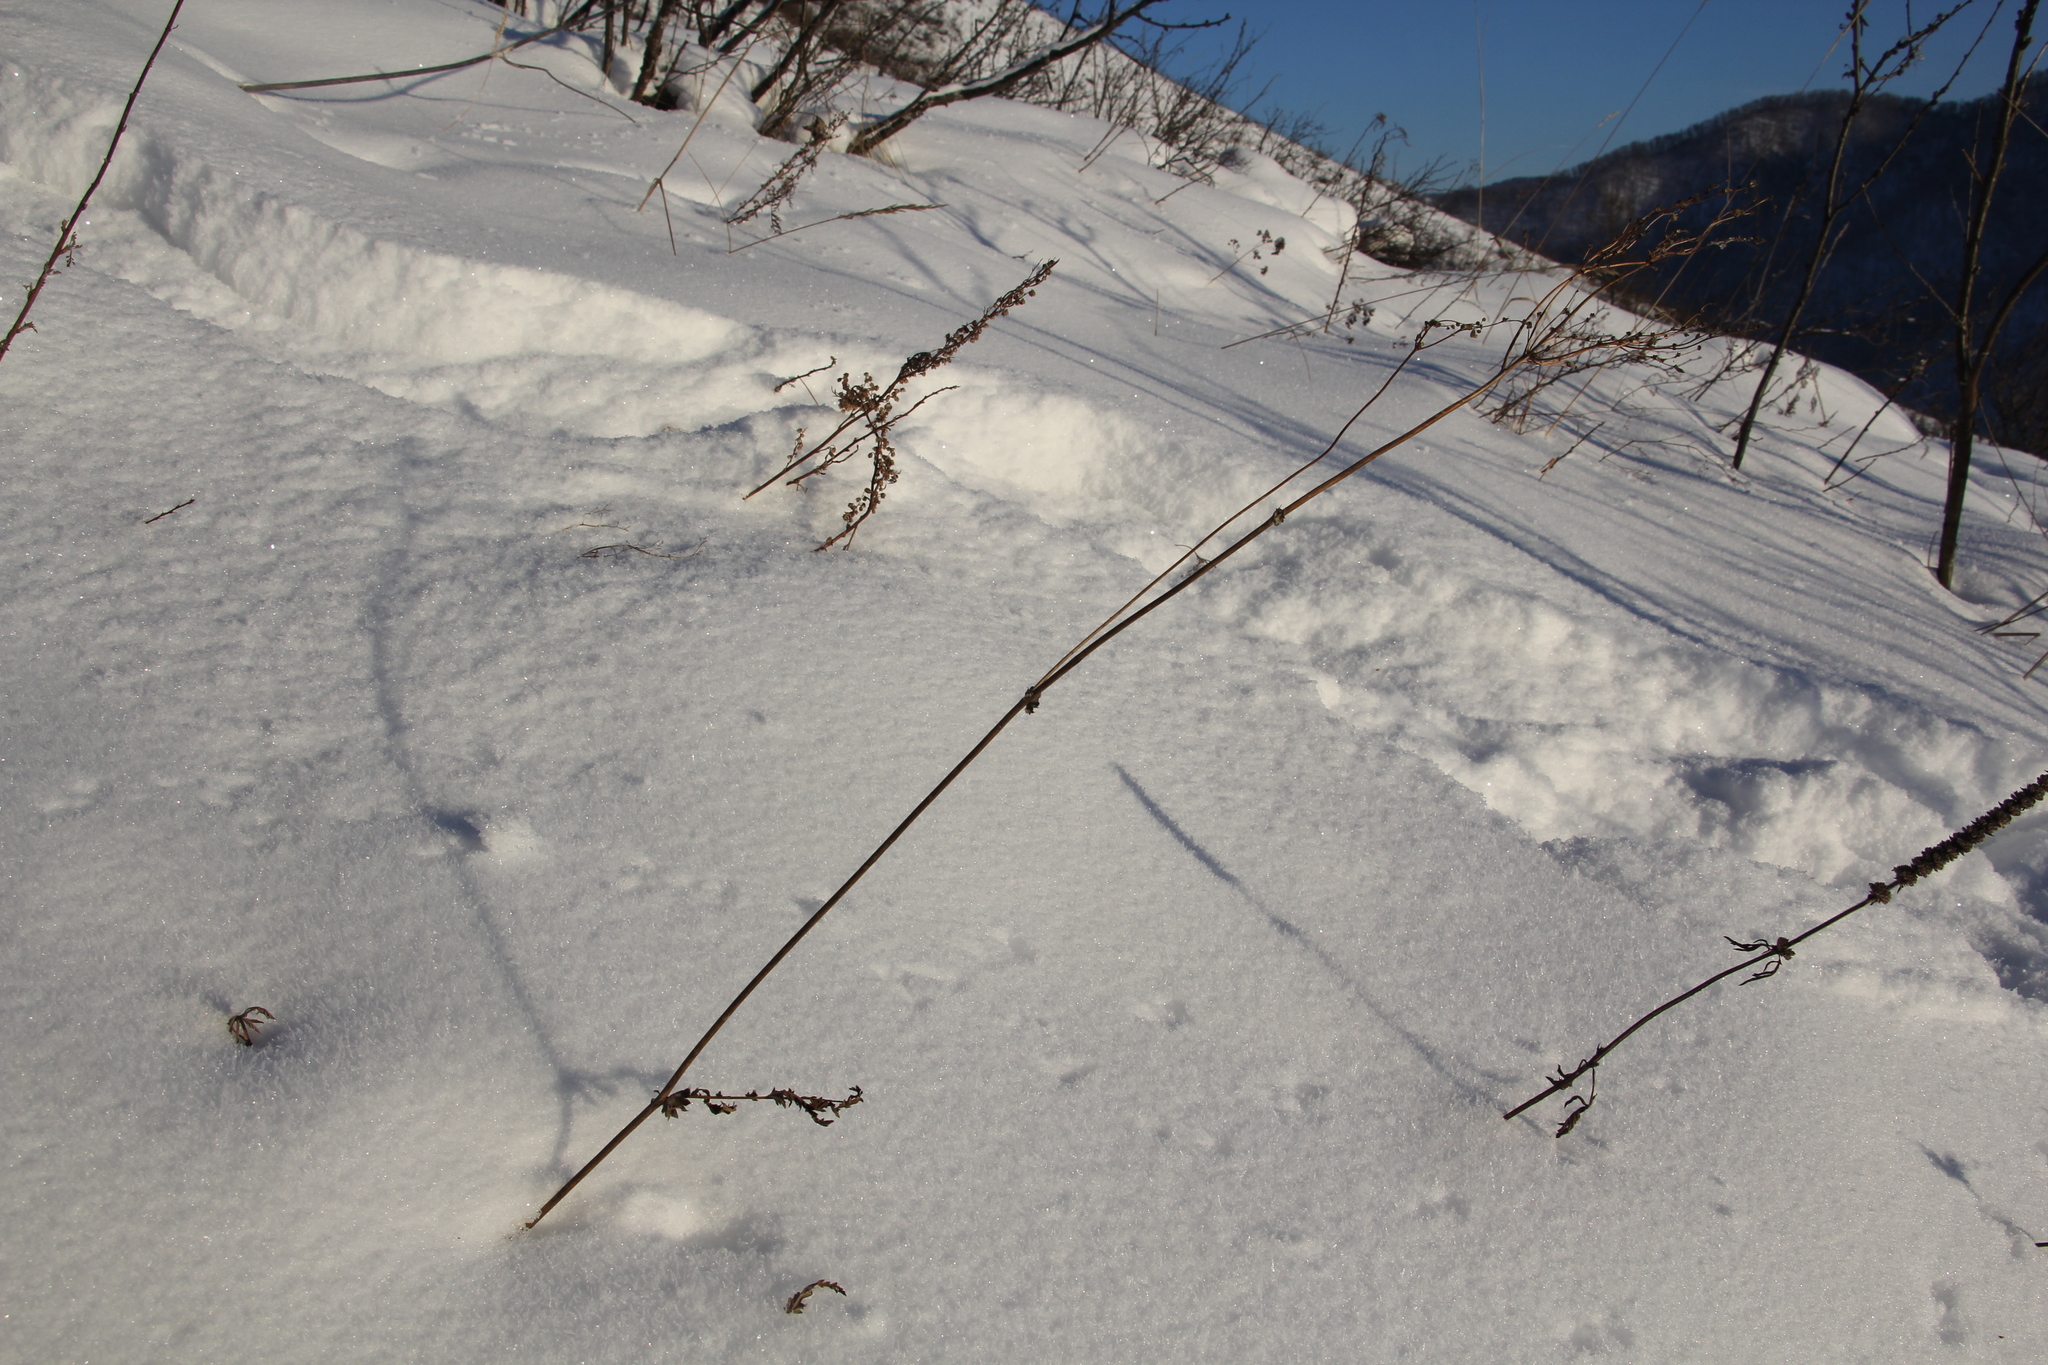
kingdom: Plantae
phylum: Tracheophyta
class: Magnoliopsida
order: Rosales
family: Rosaceae
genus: Filipendula
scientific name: Filipendula vulgaris
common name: Dropwort
